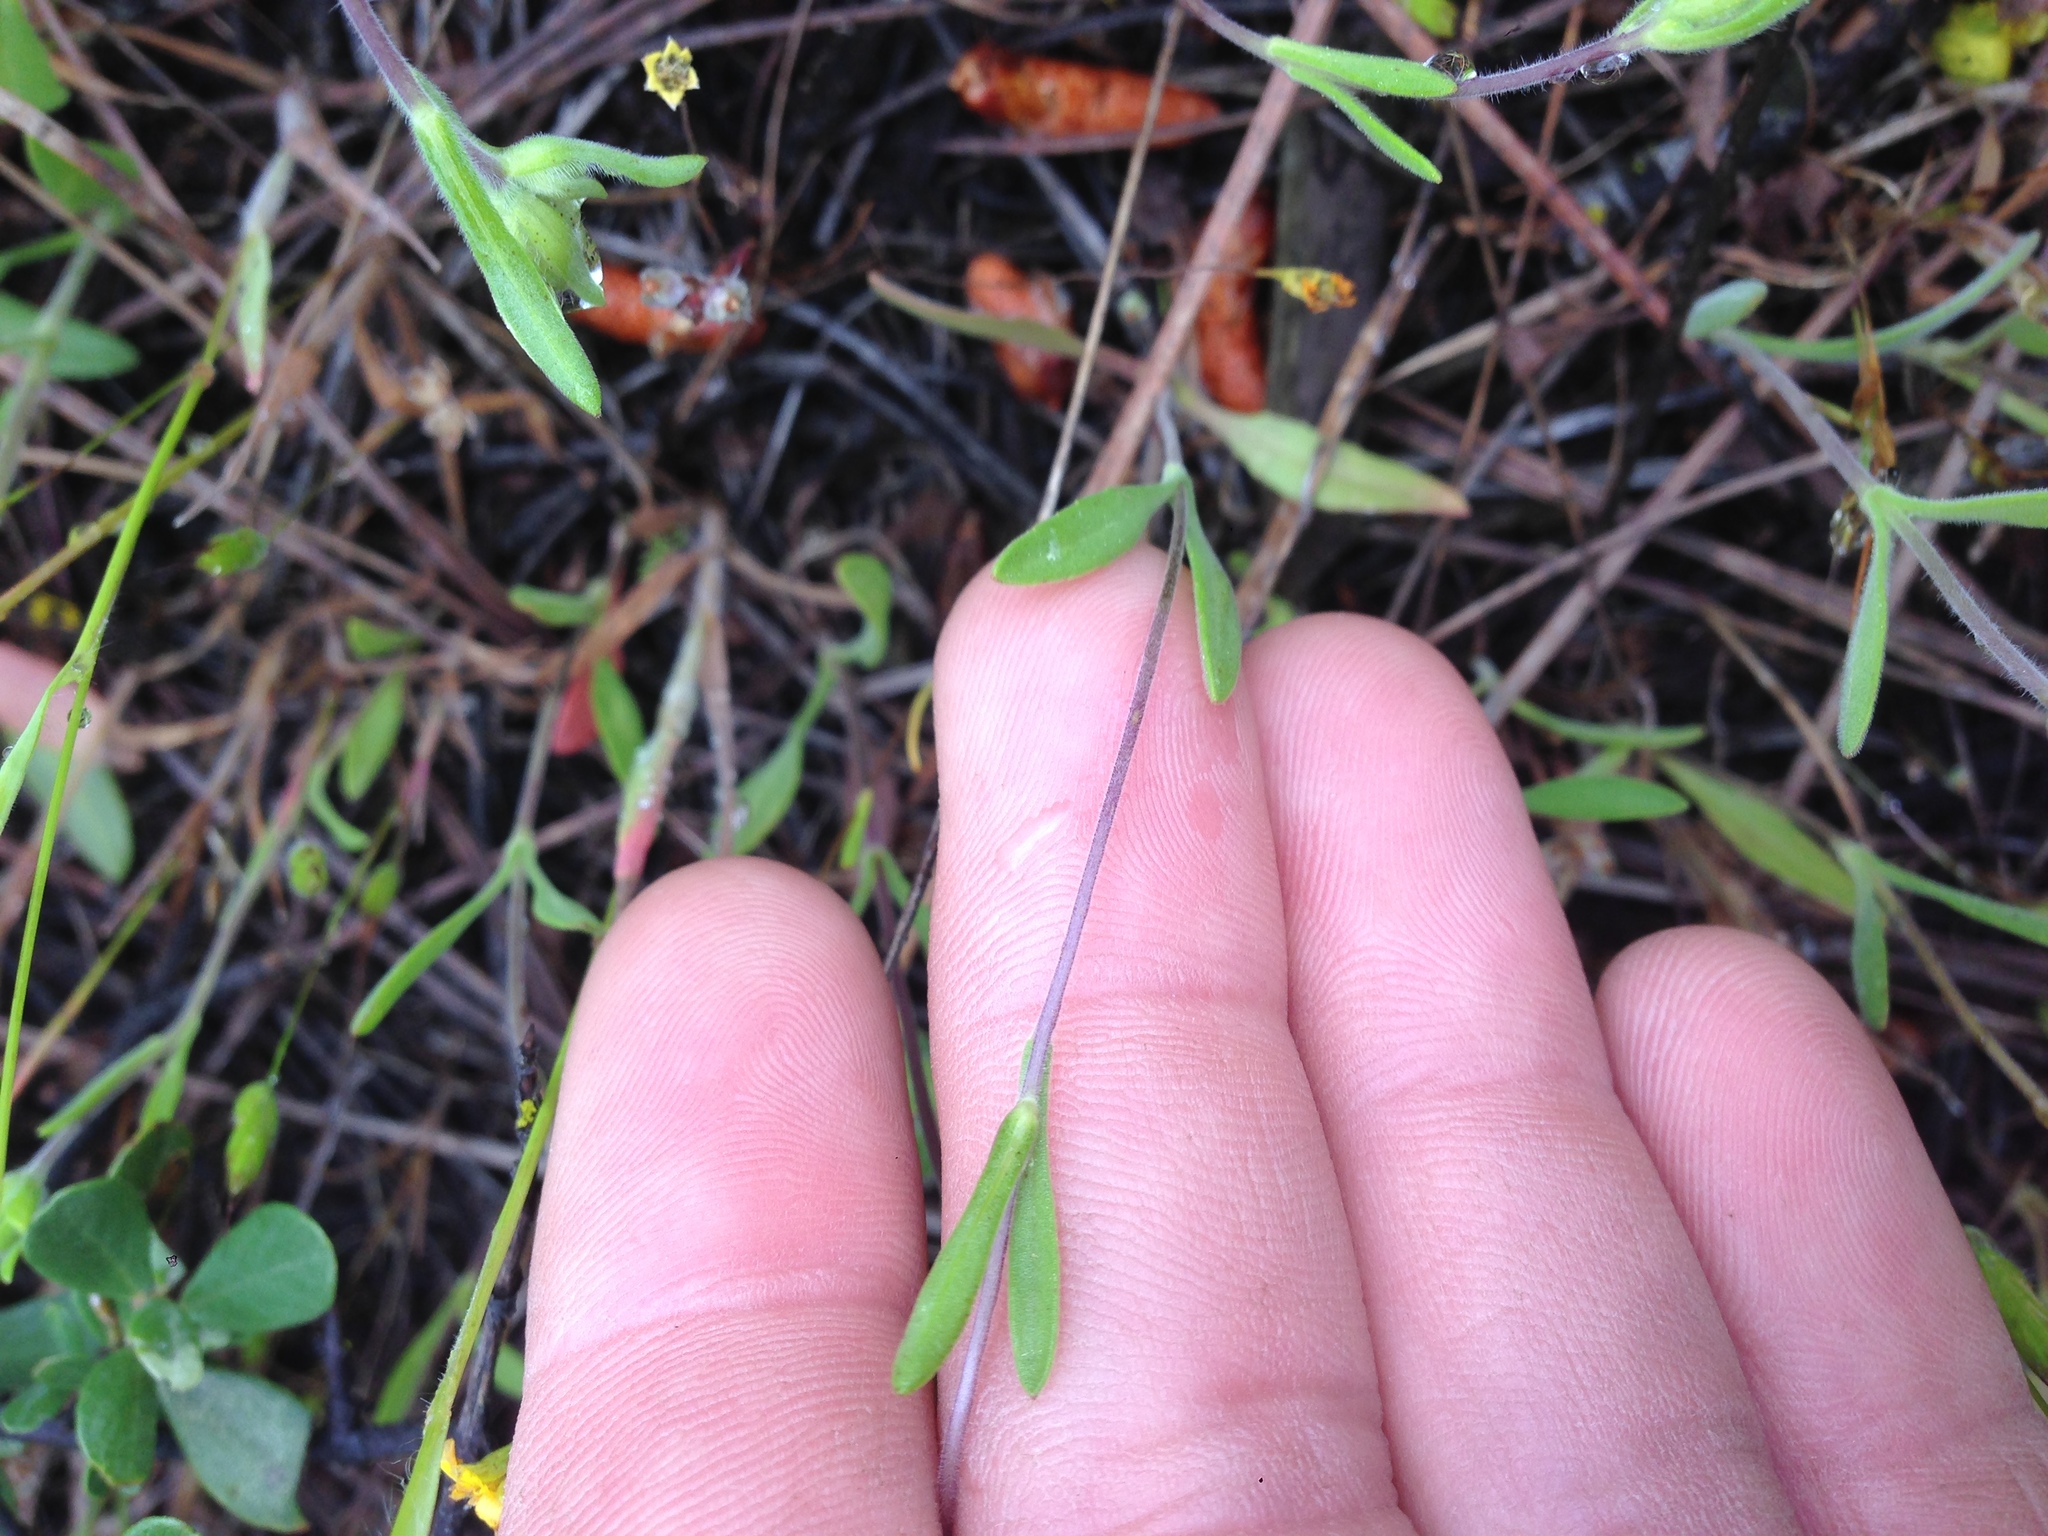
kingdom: Plantae
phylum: Tracheophyta
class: Magnoliopsida
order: Asterales
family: Asteraceae
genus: Lagophylla
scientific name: Lagophylla glandulosa
